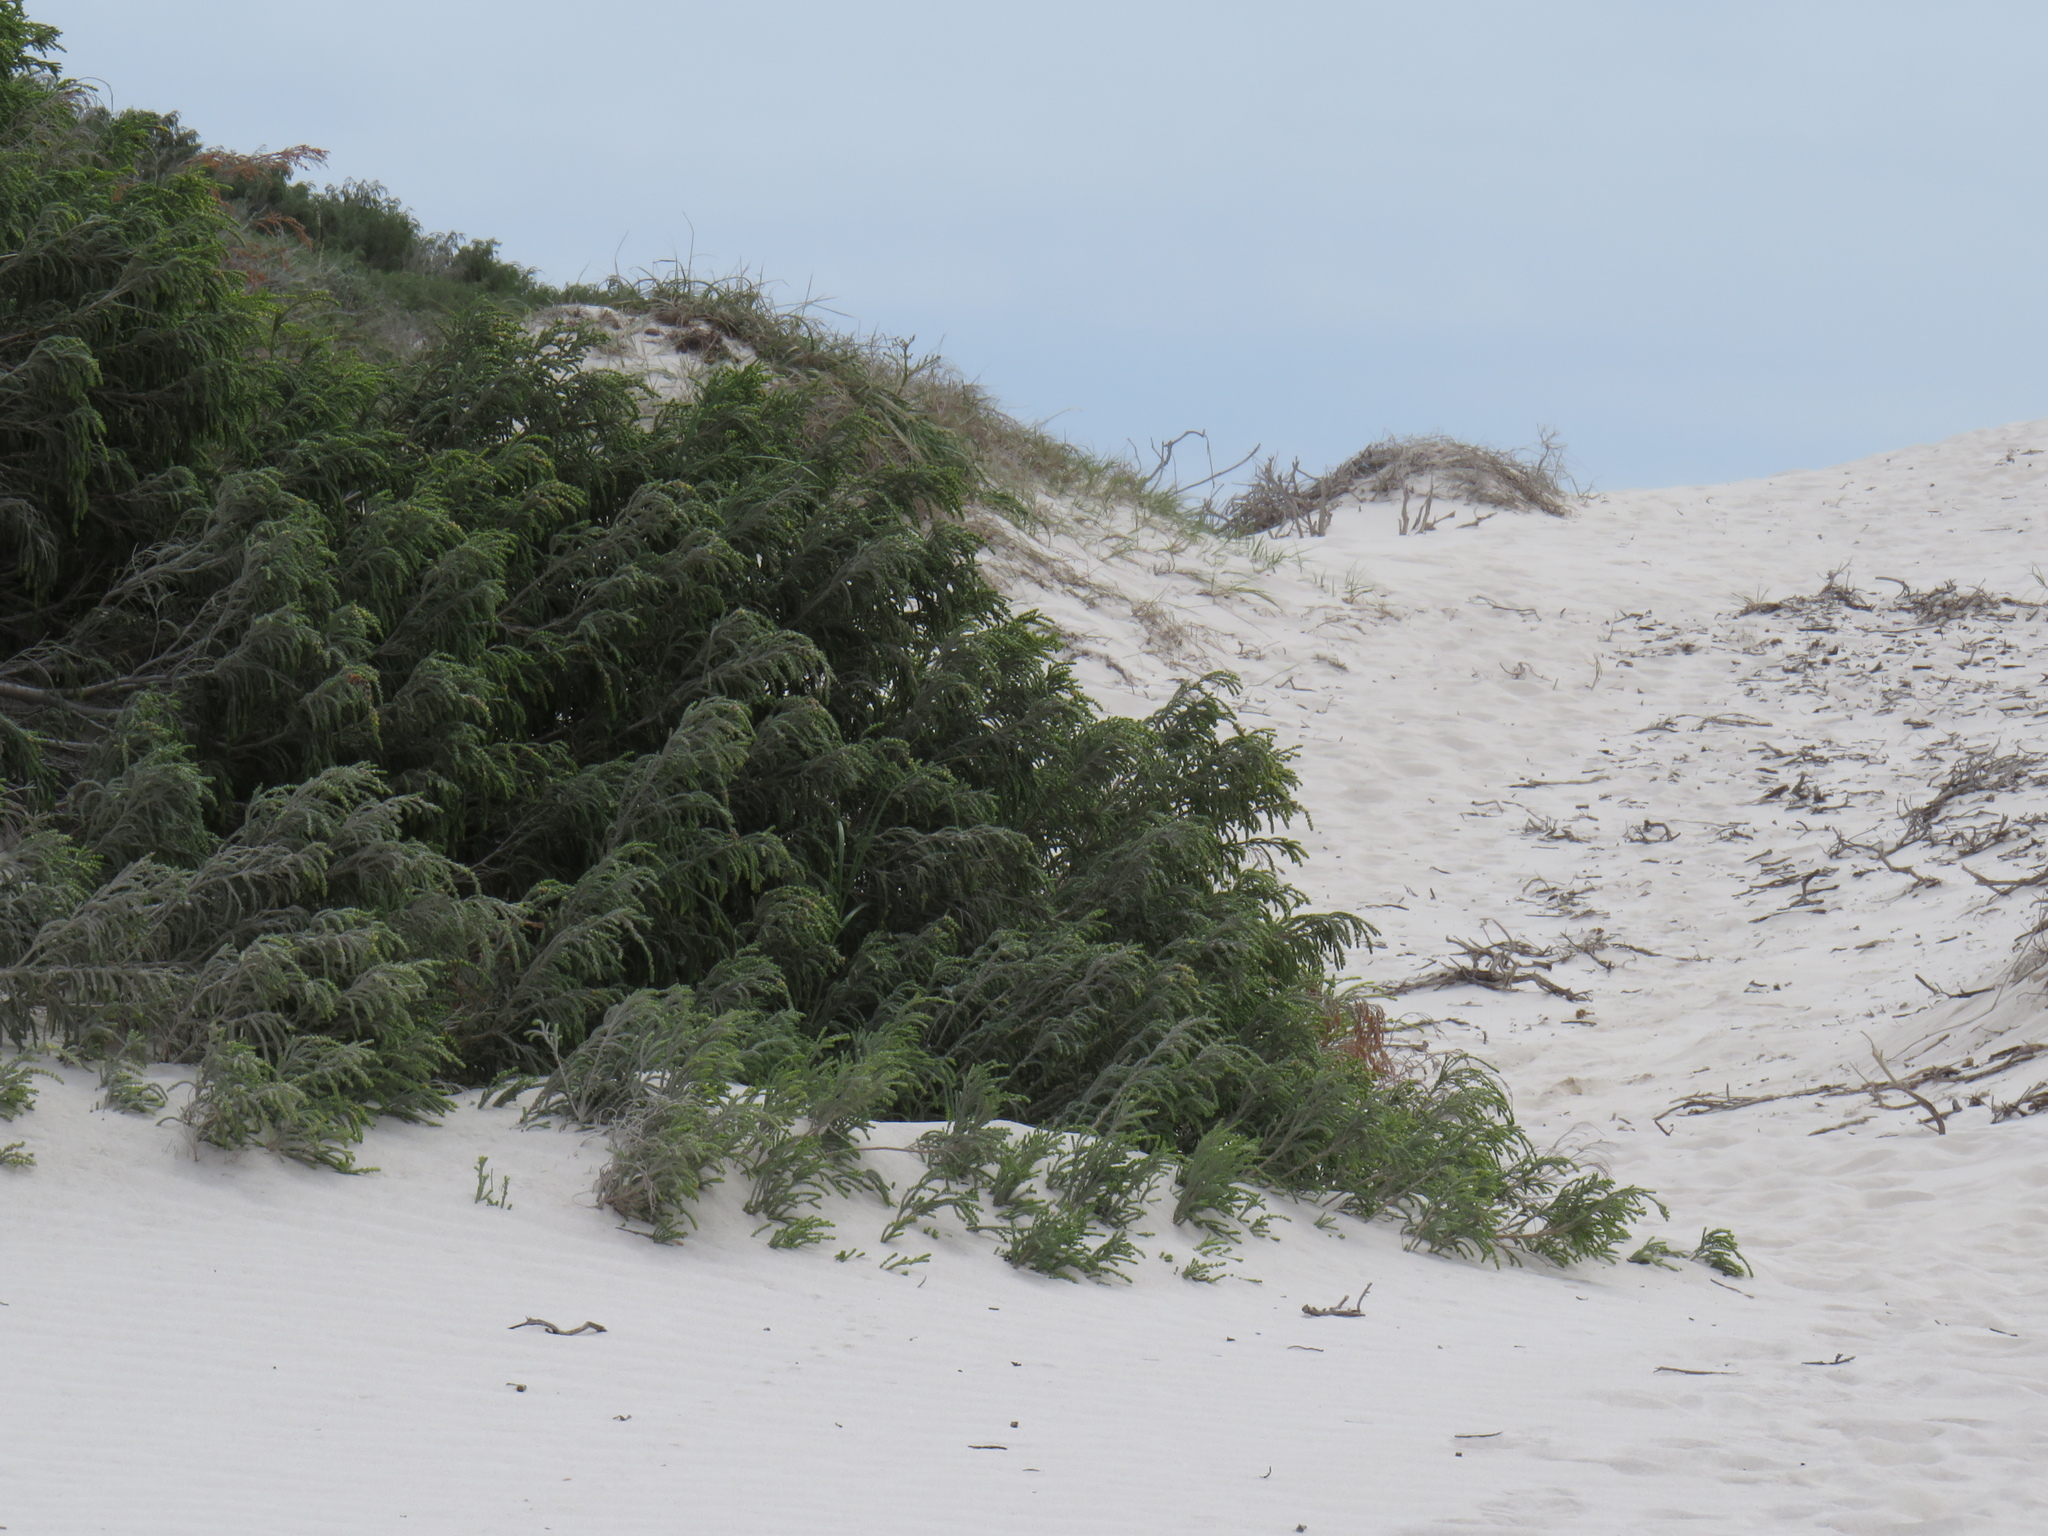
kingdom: Plantae
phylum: Tracheophyta
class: Magnoliopsida
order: Malvales
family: Thymelaeaceae
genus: Passerina
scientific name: Passerina ericoides
